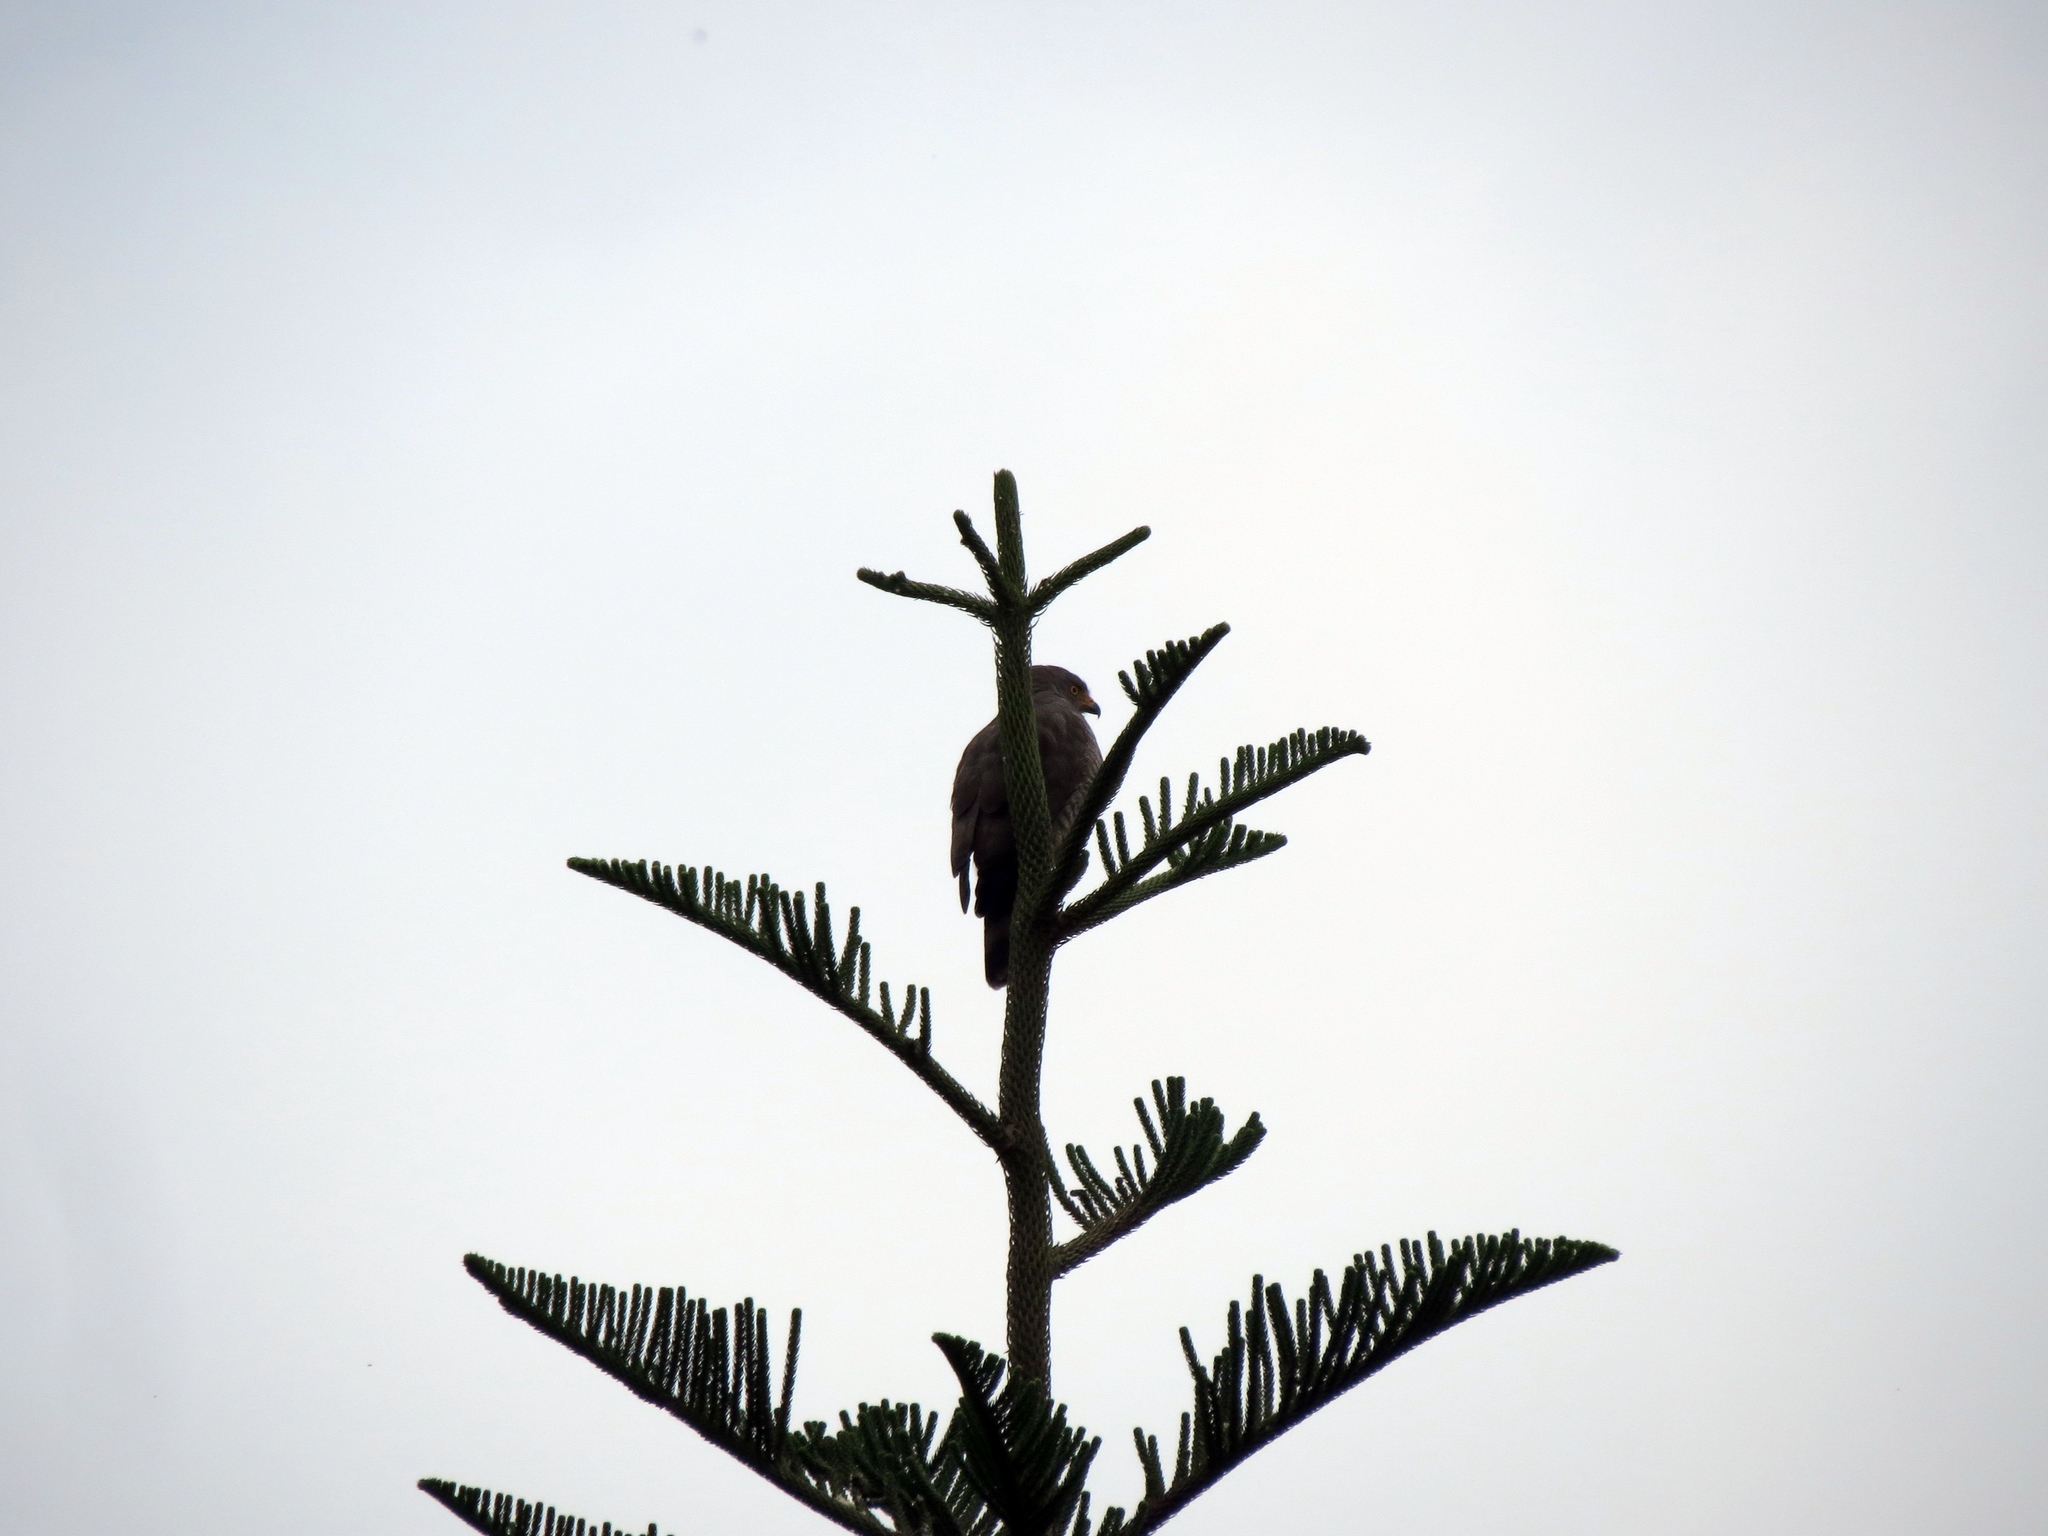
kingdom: Animalia
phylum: Chordata
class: Aves
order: Accipitriformes
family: Accipitridae
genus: Rupornis
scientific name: Rupornis magnirostris
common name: Roadside hawk
